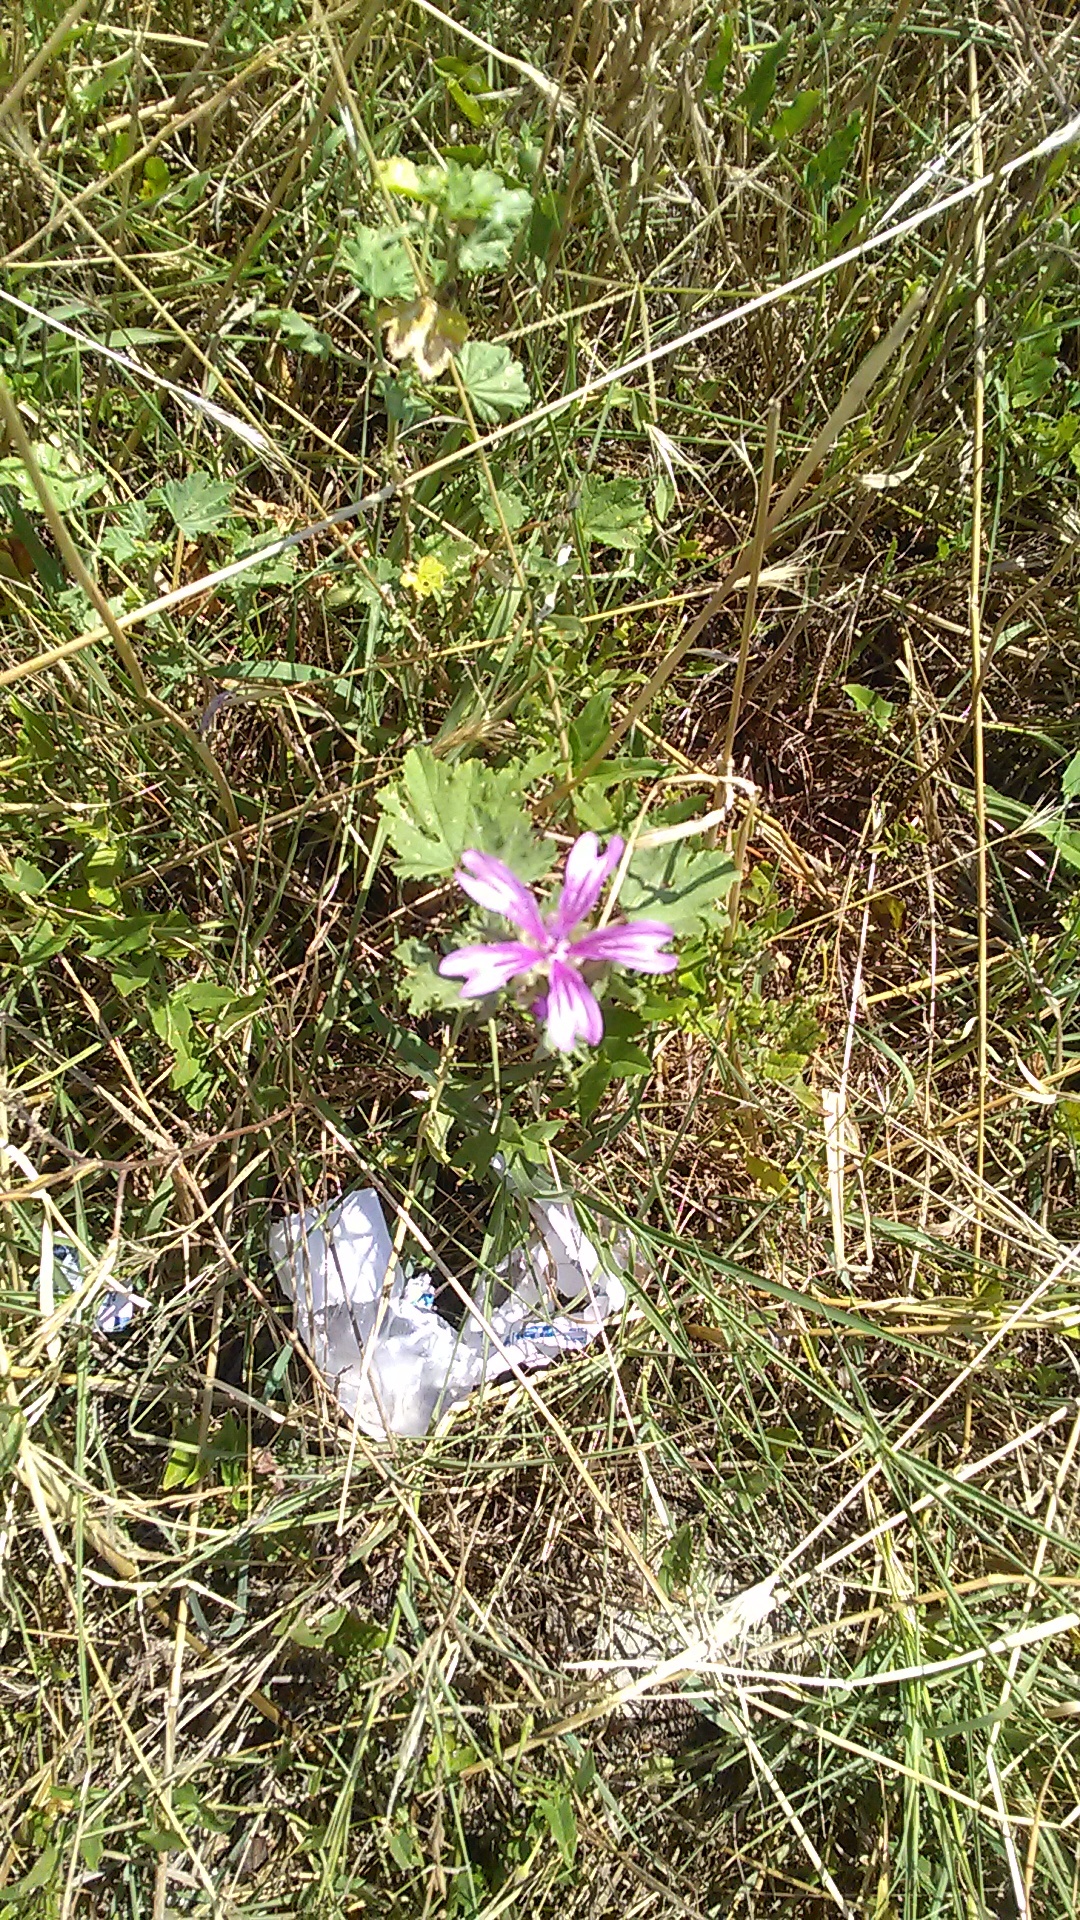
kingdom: Plantae
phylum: Tracheophyta
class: Magnoliopsida
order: Malvales
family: Malvaceae
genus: Malva
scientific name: Malva sylvestris
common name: Common mallow
